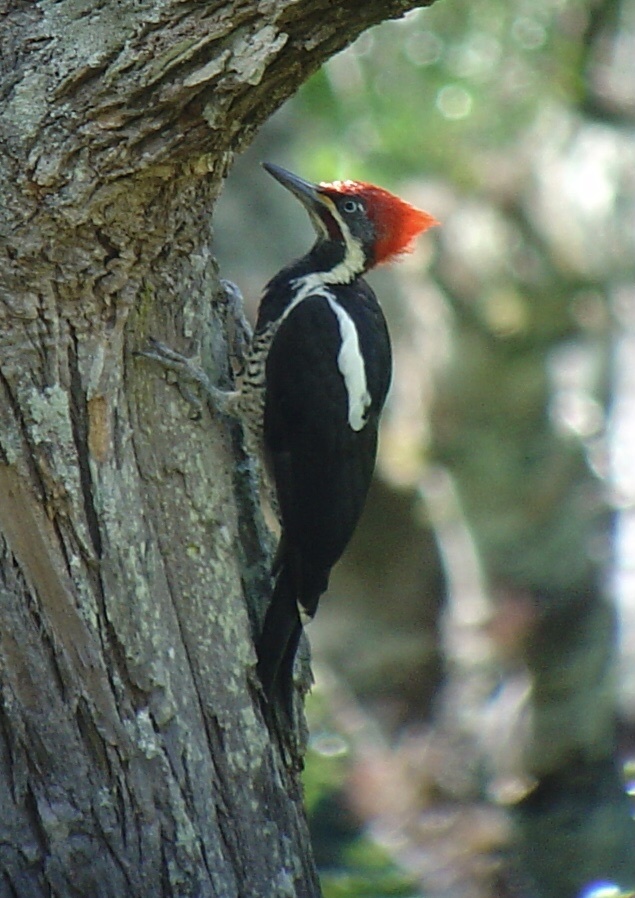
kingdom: Animalia
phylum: Chordata
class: Aves
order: Piciformes
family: Picidae
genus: Dryocopus
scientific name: Dryocopus lineatus
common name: Lineated woodpecker
